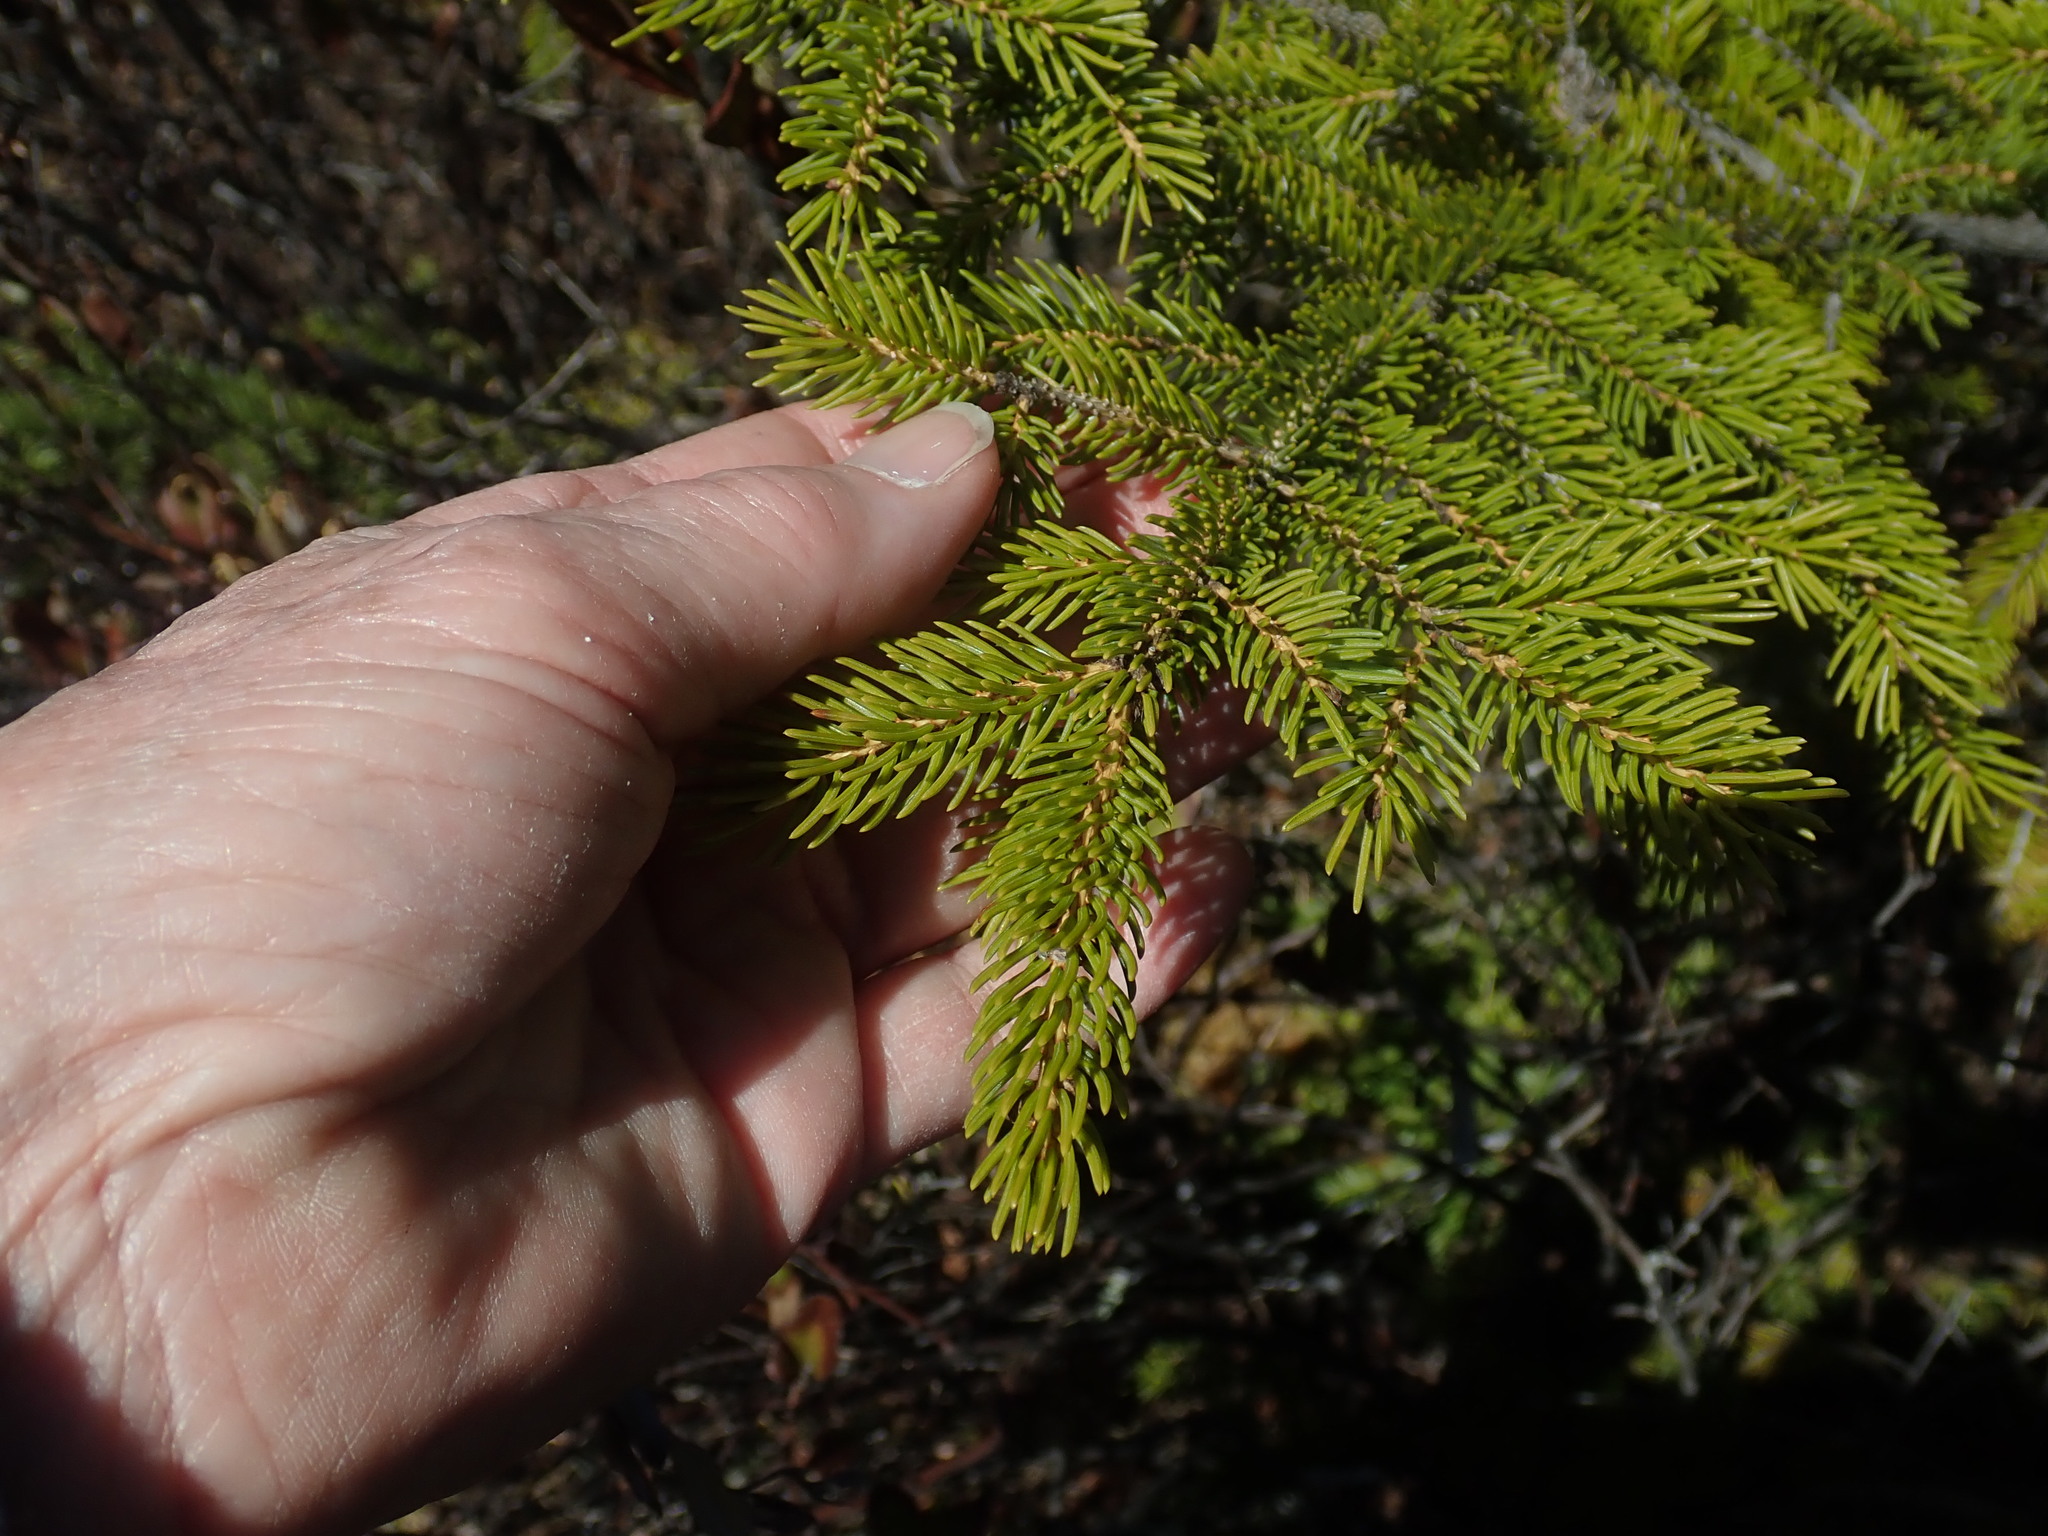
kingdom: Plantae
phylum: Tracheophyta
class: Pinopsida
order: Pinales
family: Pinaceae
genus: Picea
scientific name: Picea mariana
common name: Black spruce
